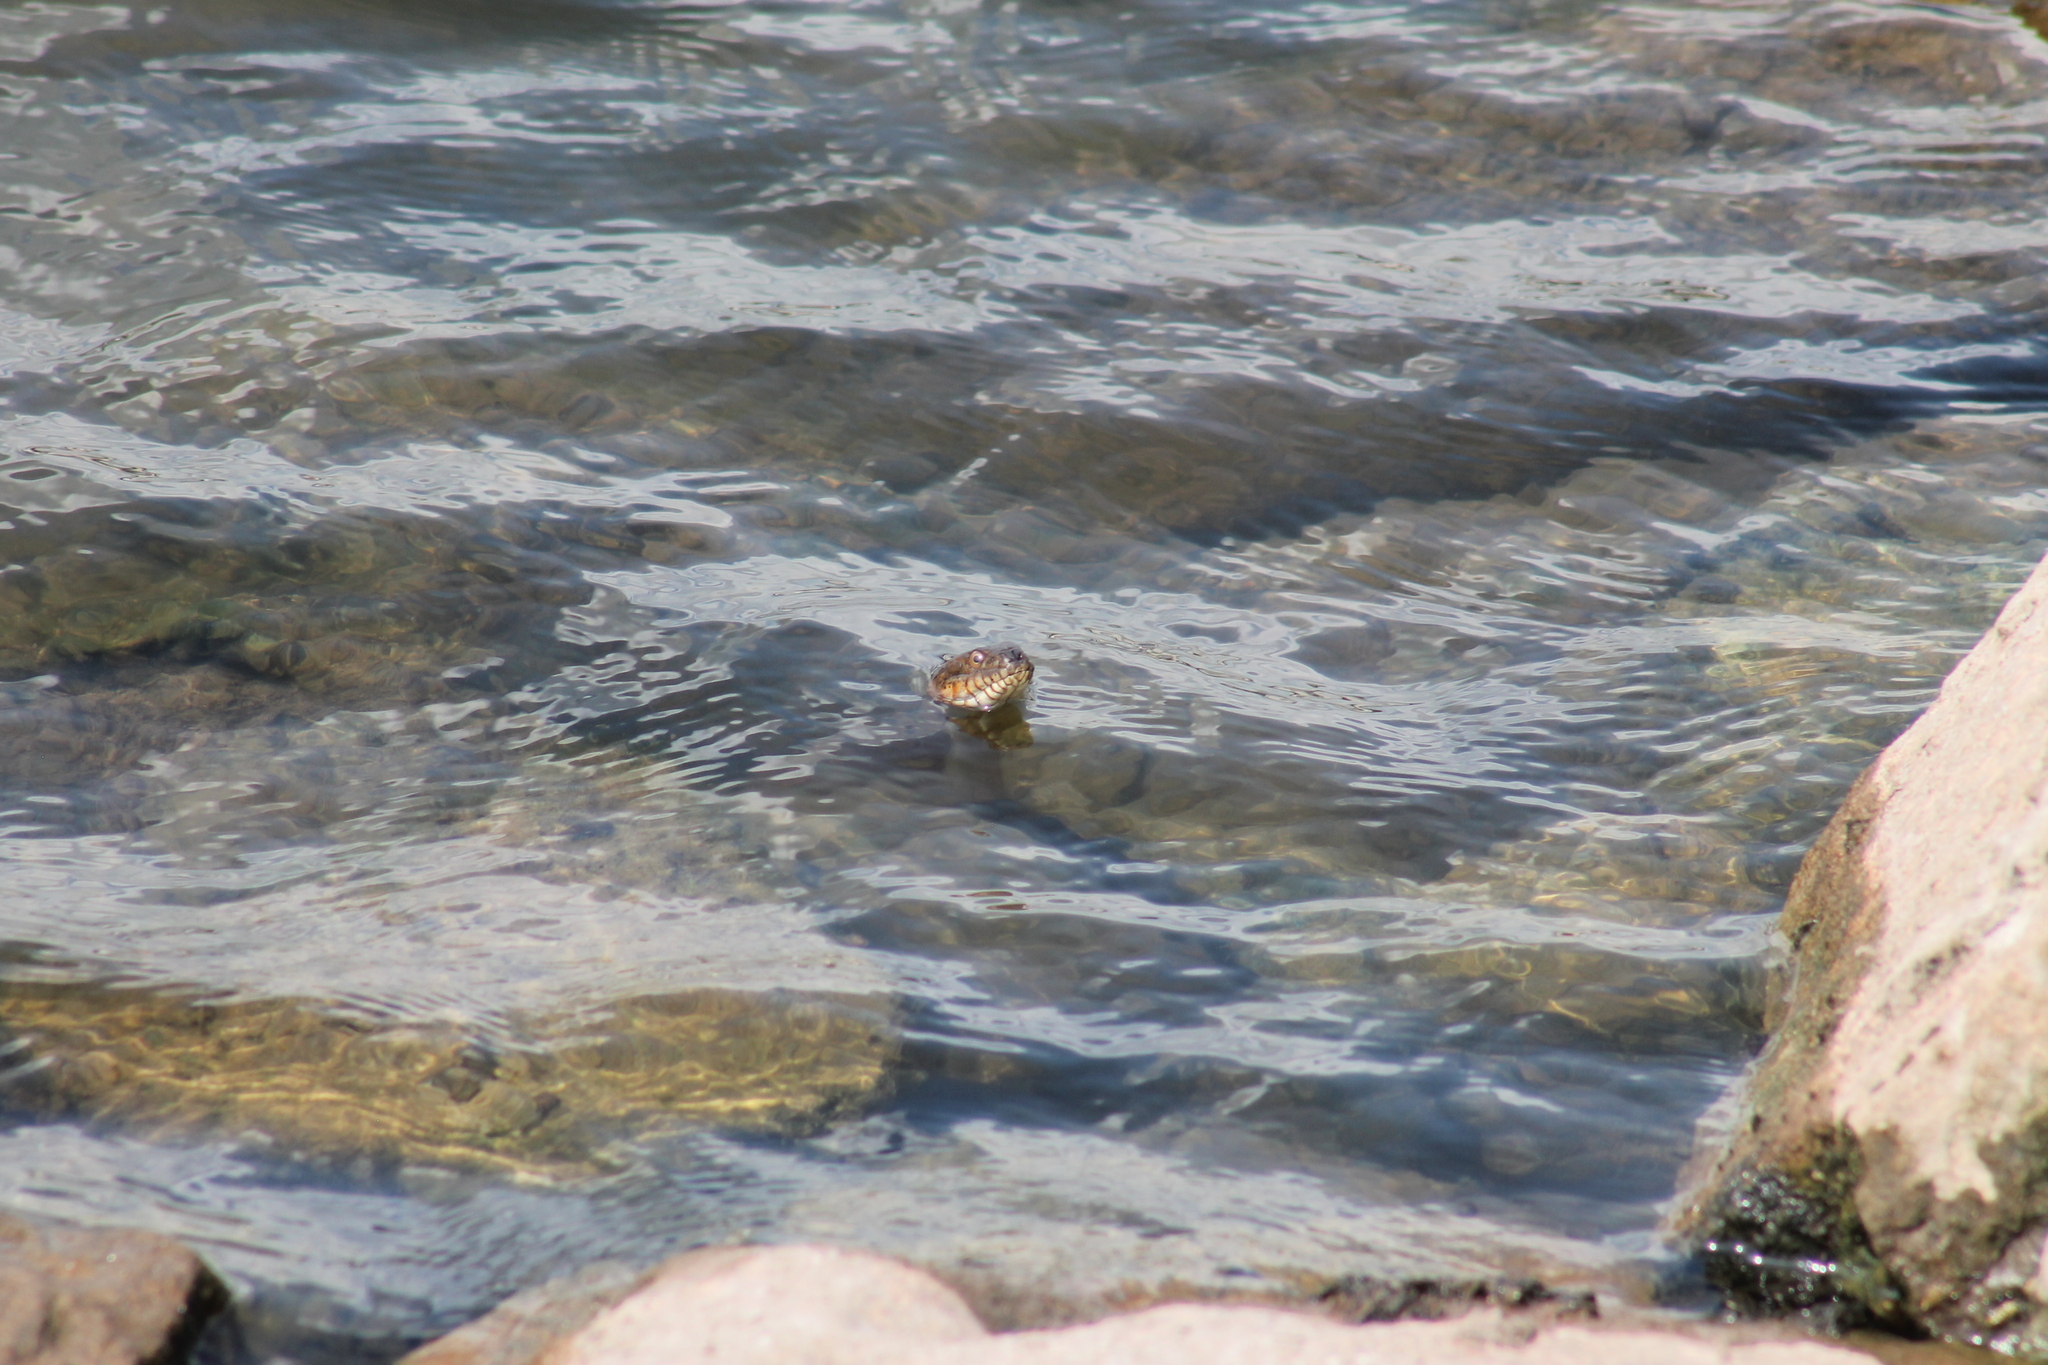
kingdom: Animalia
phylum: Chordata
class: Squamata
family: Colubridae
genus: Nerodia
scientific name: Nerodia sipedon
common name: Northern water snake
